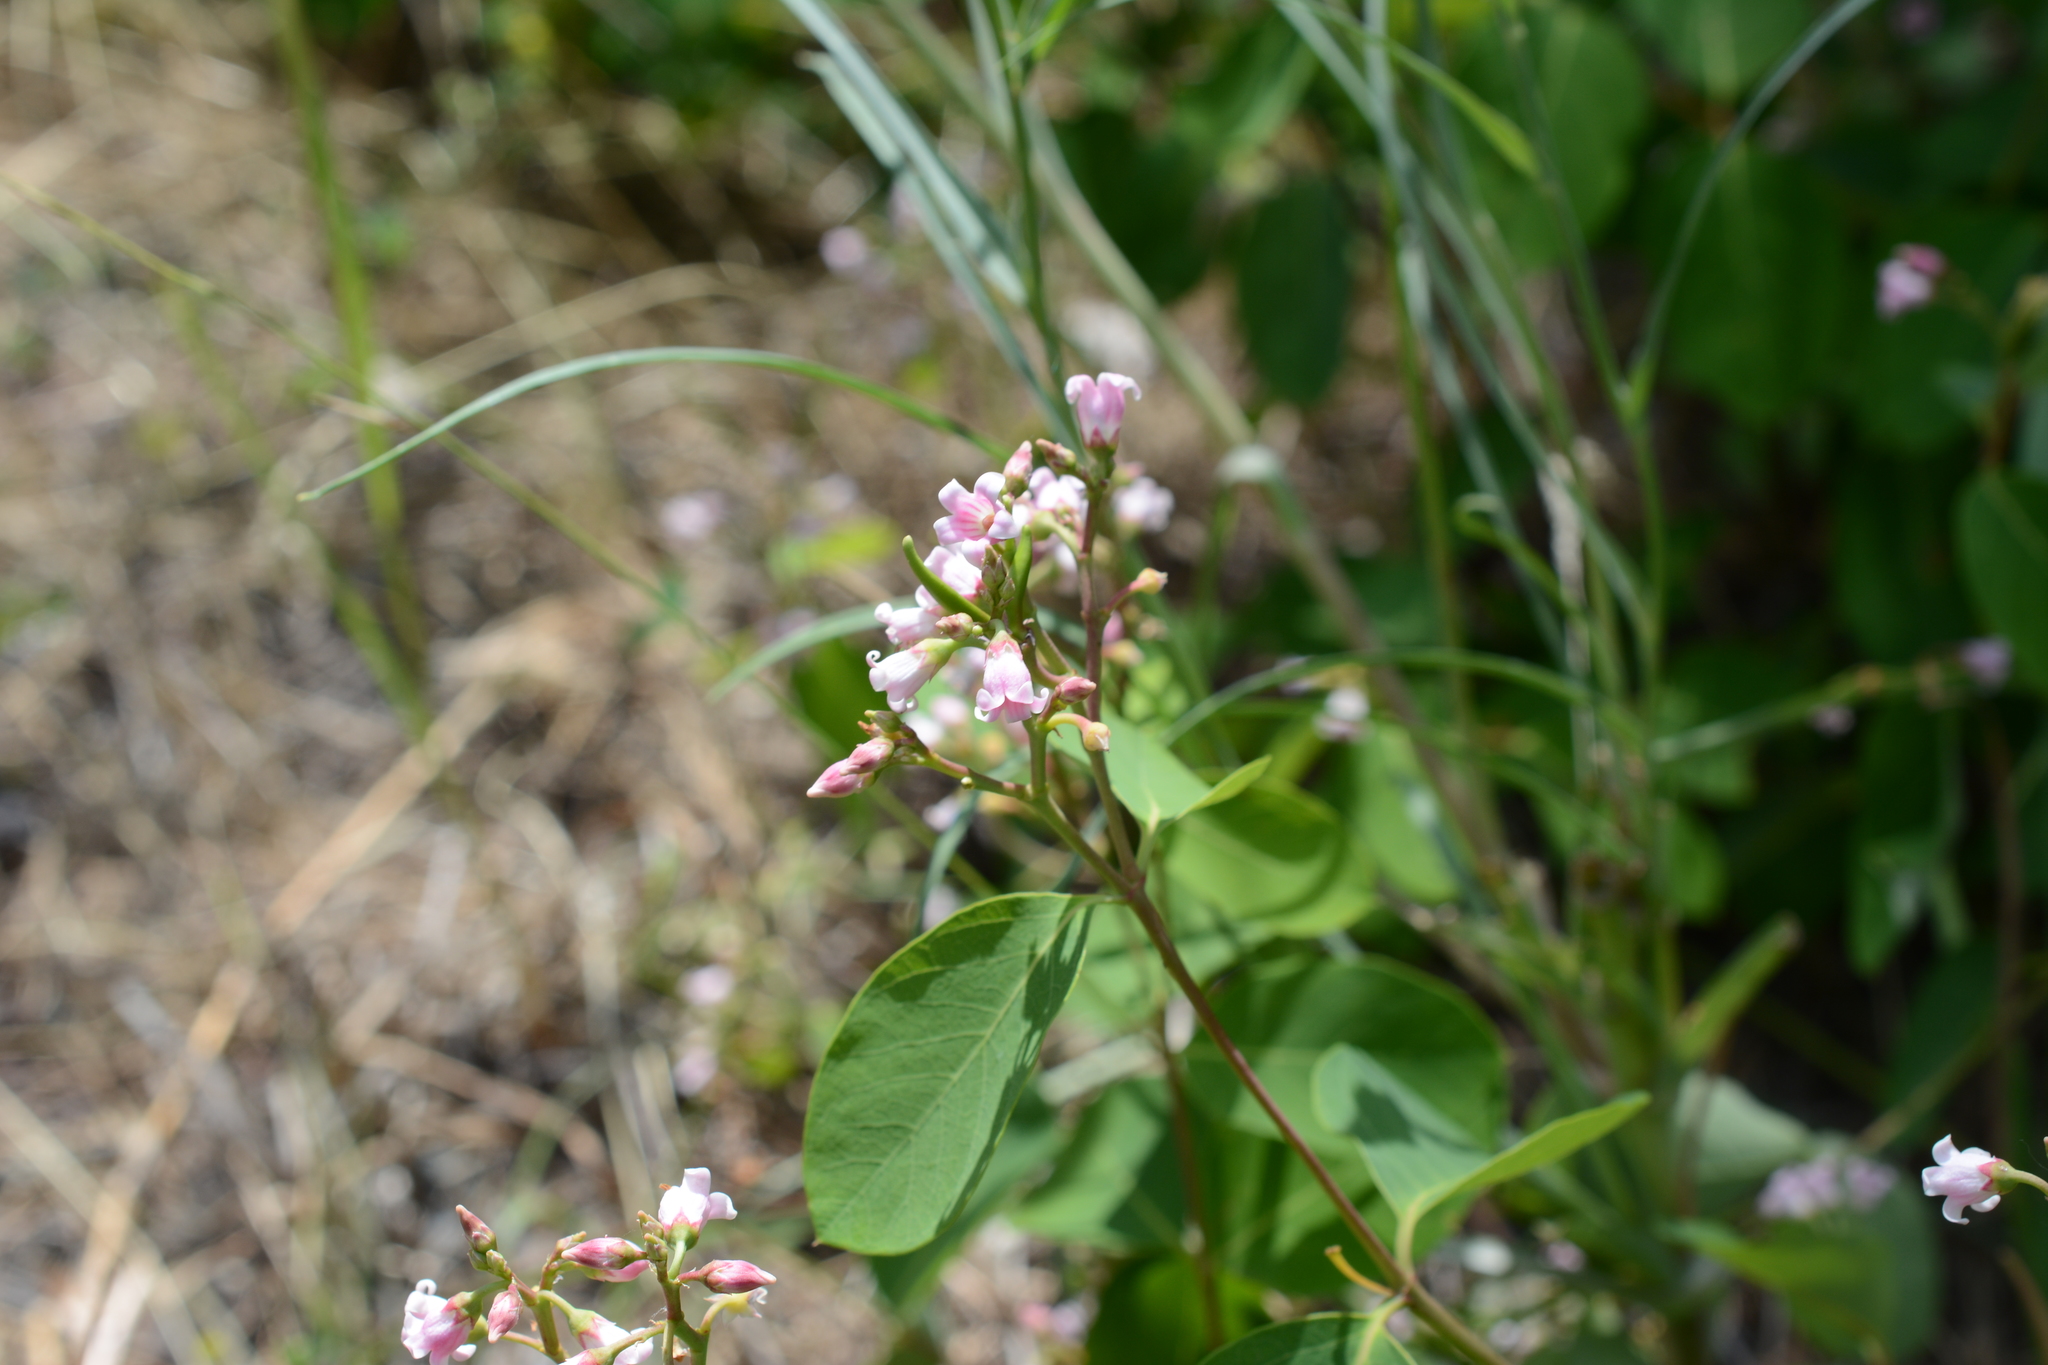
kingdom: Plantae
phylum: Tracheophyta
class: Magnoliopsida
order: Gentianales
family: Apocynaceae
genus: Apocynum
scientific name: Apocynum androsaemifolium
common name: Spreading dogbane
